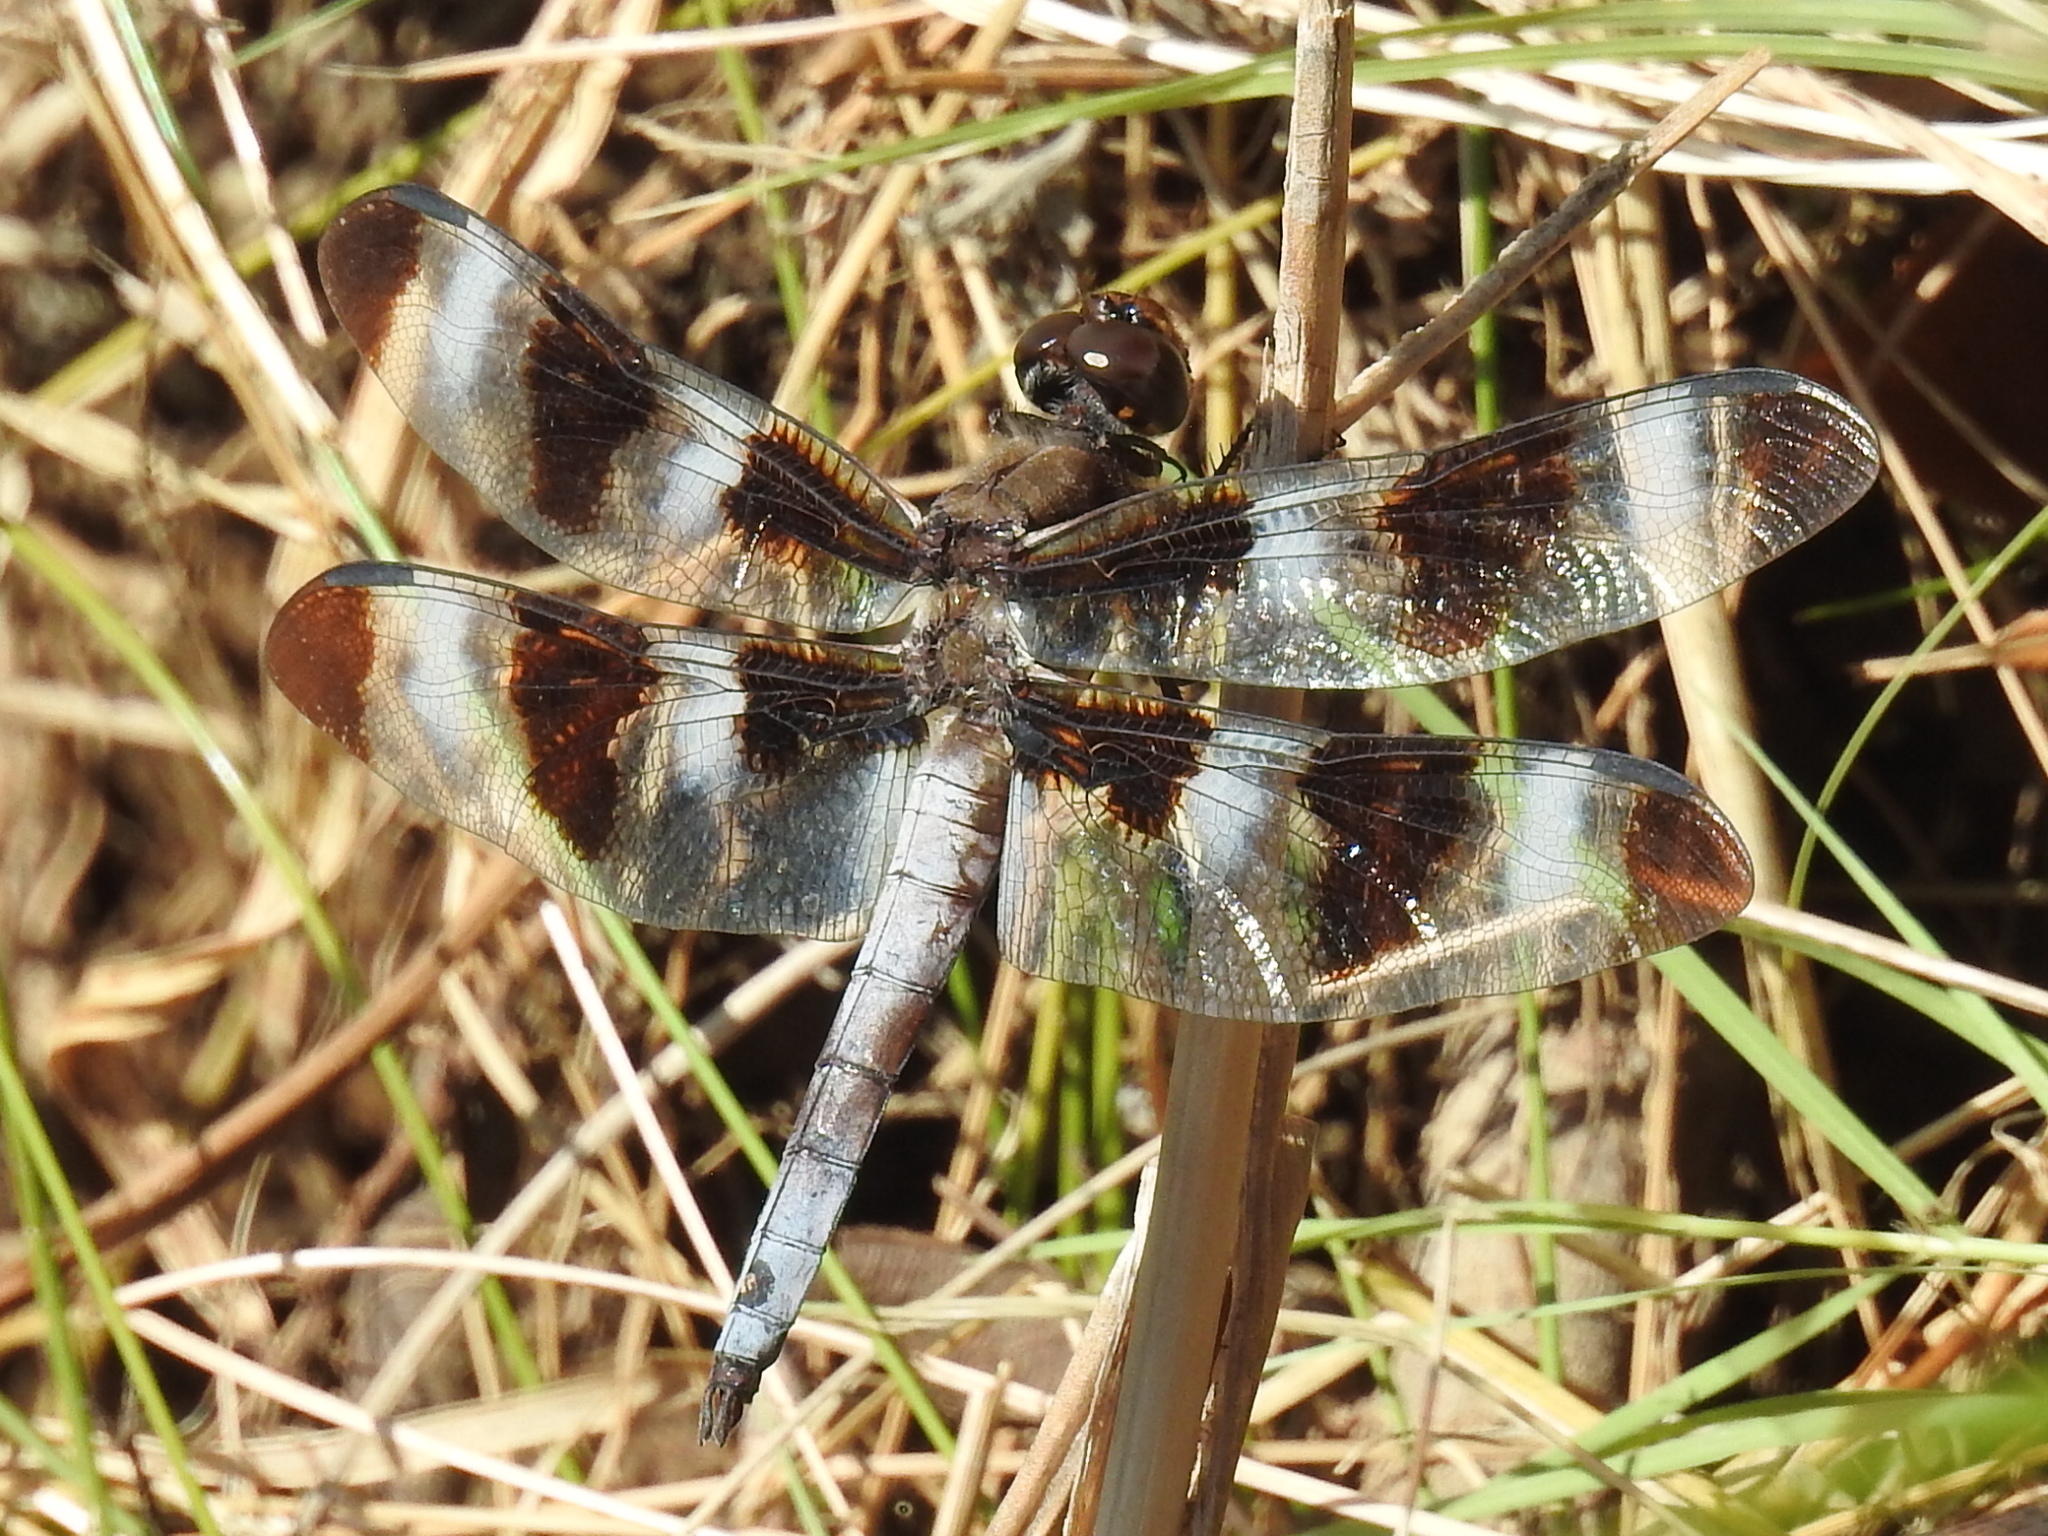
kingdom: Animalia
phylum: Arthropoda
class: Insecta
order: Odonata
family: Libellulidae
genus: Libellula
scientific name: Libellula pulchella
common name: Twelve-spotted skimmer
